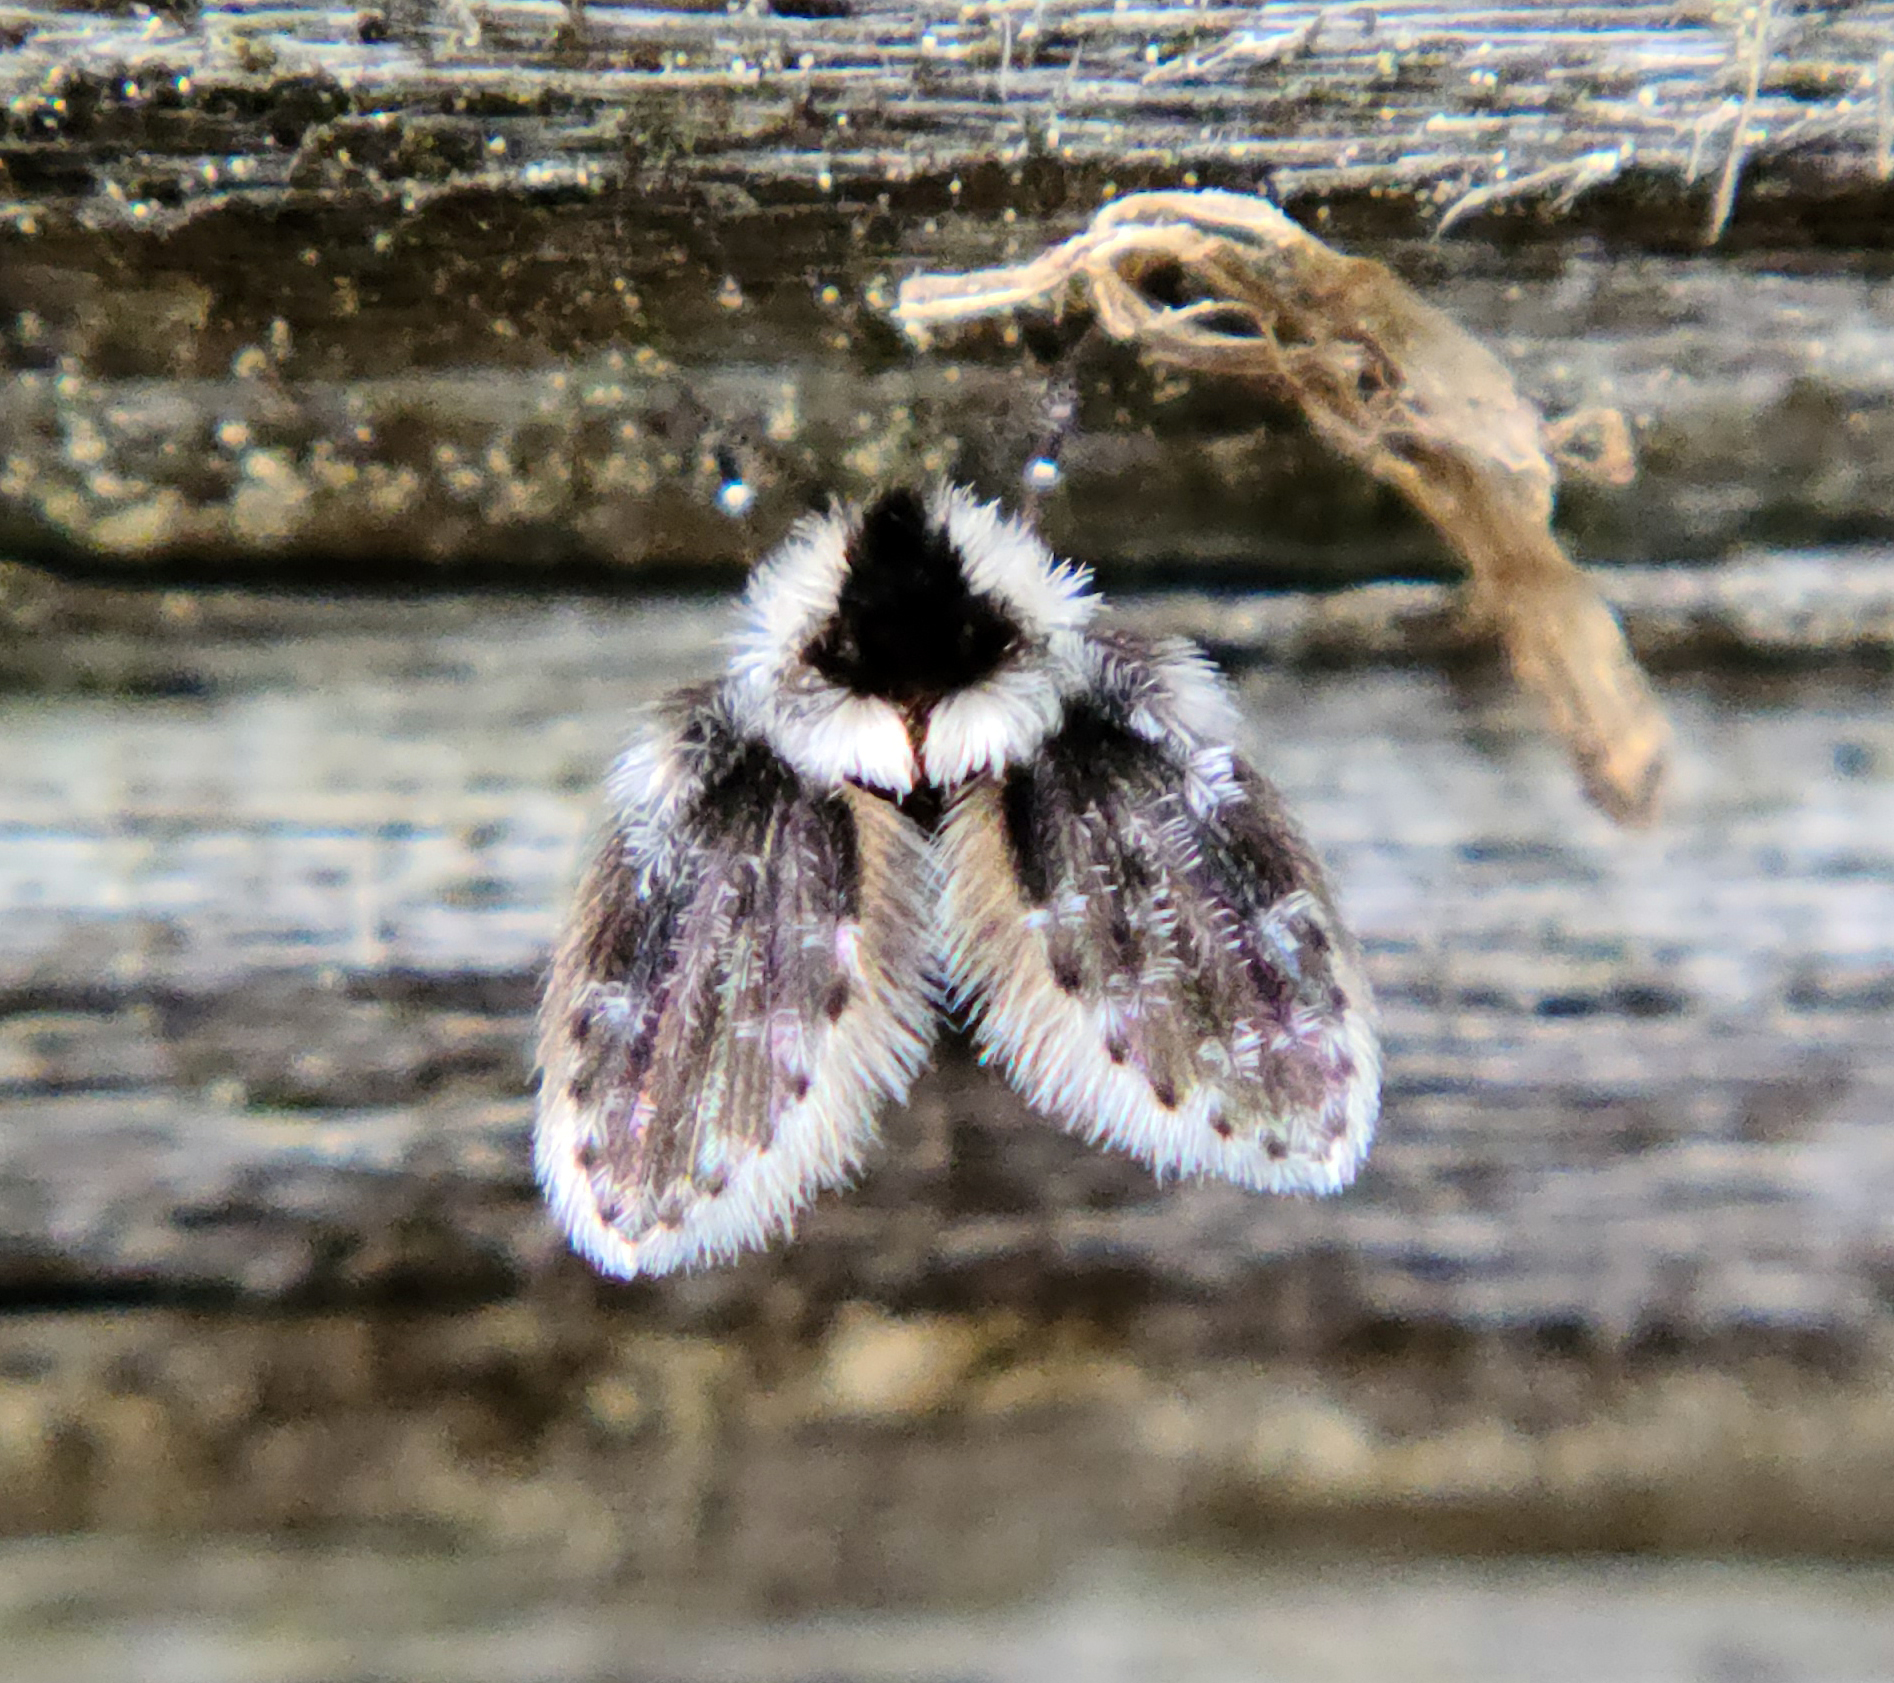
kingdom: Animalia
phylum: Arthropoda
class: Insecta
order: Diptera
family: Psychodidae
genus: Lepiseodina
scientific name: Lepiseodina
